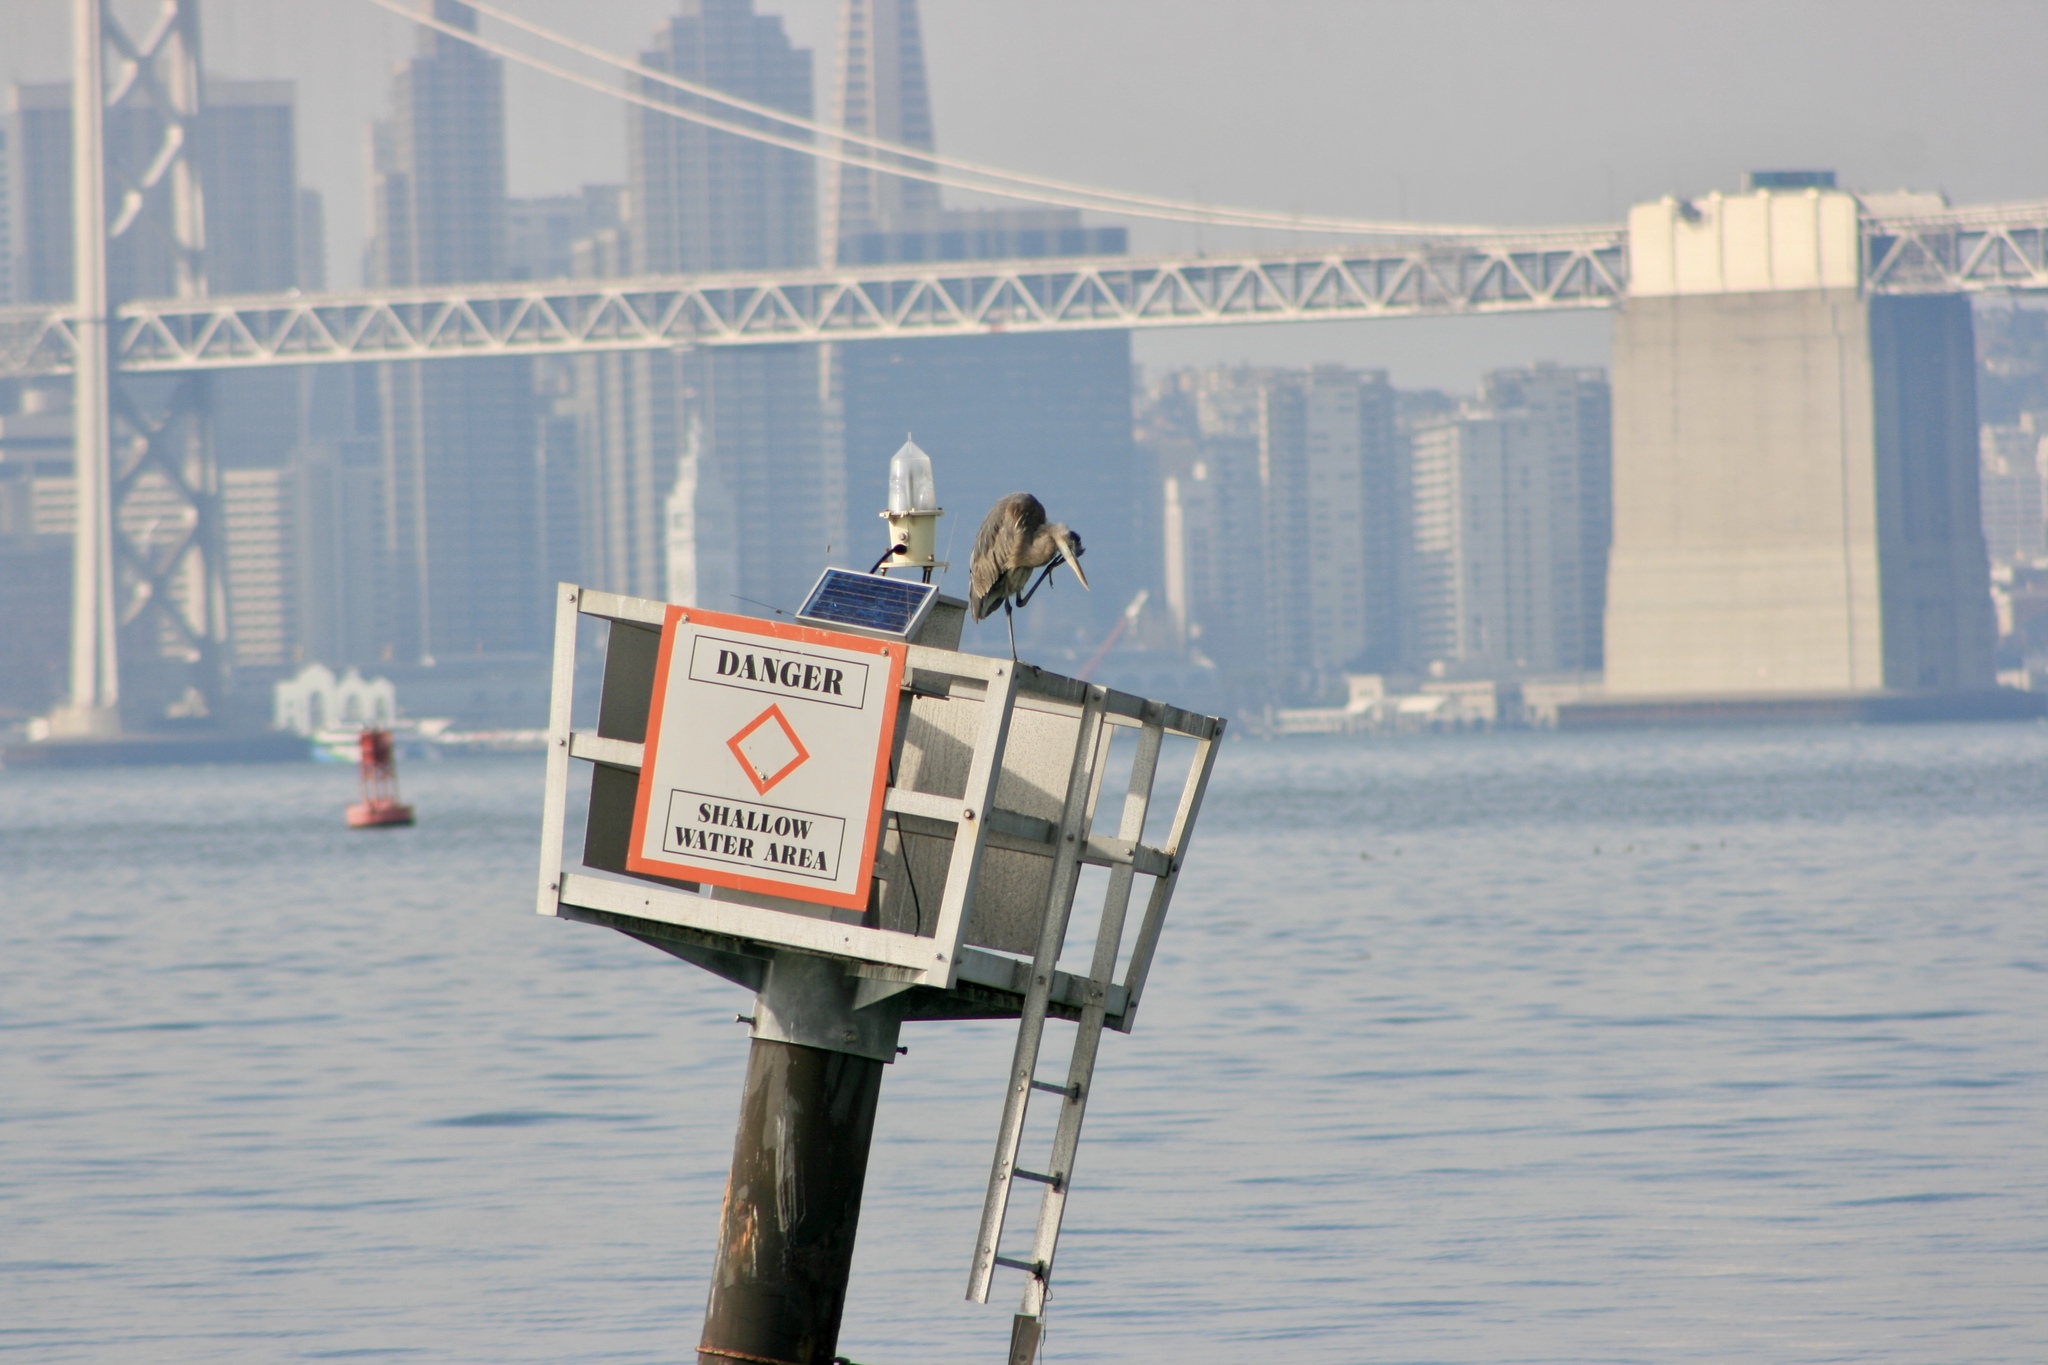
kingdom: Animalia
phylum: Chordata
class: Aves
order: Pelecaniformes
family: Ardeidae
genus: Ardea
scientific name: Ardea herodias
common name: Great blue heron
